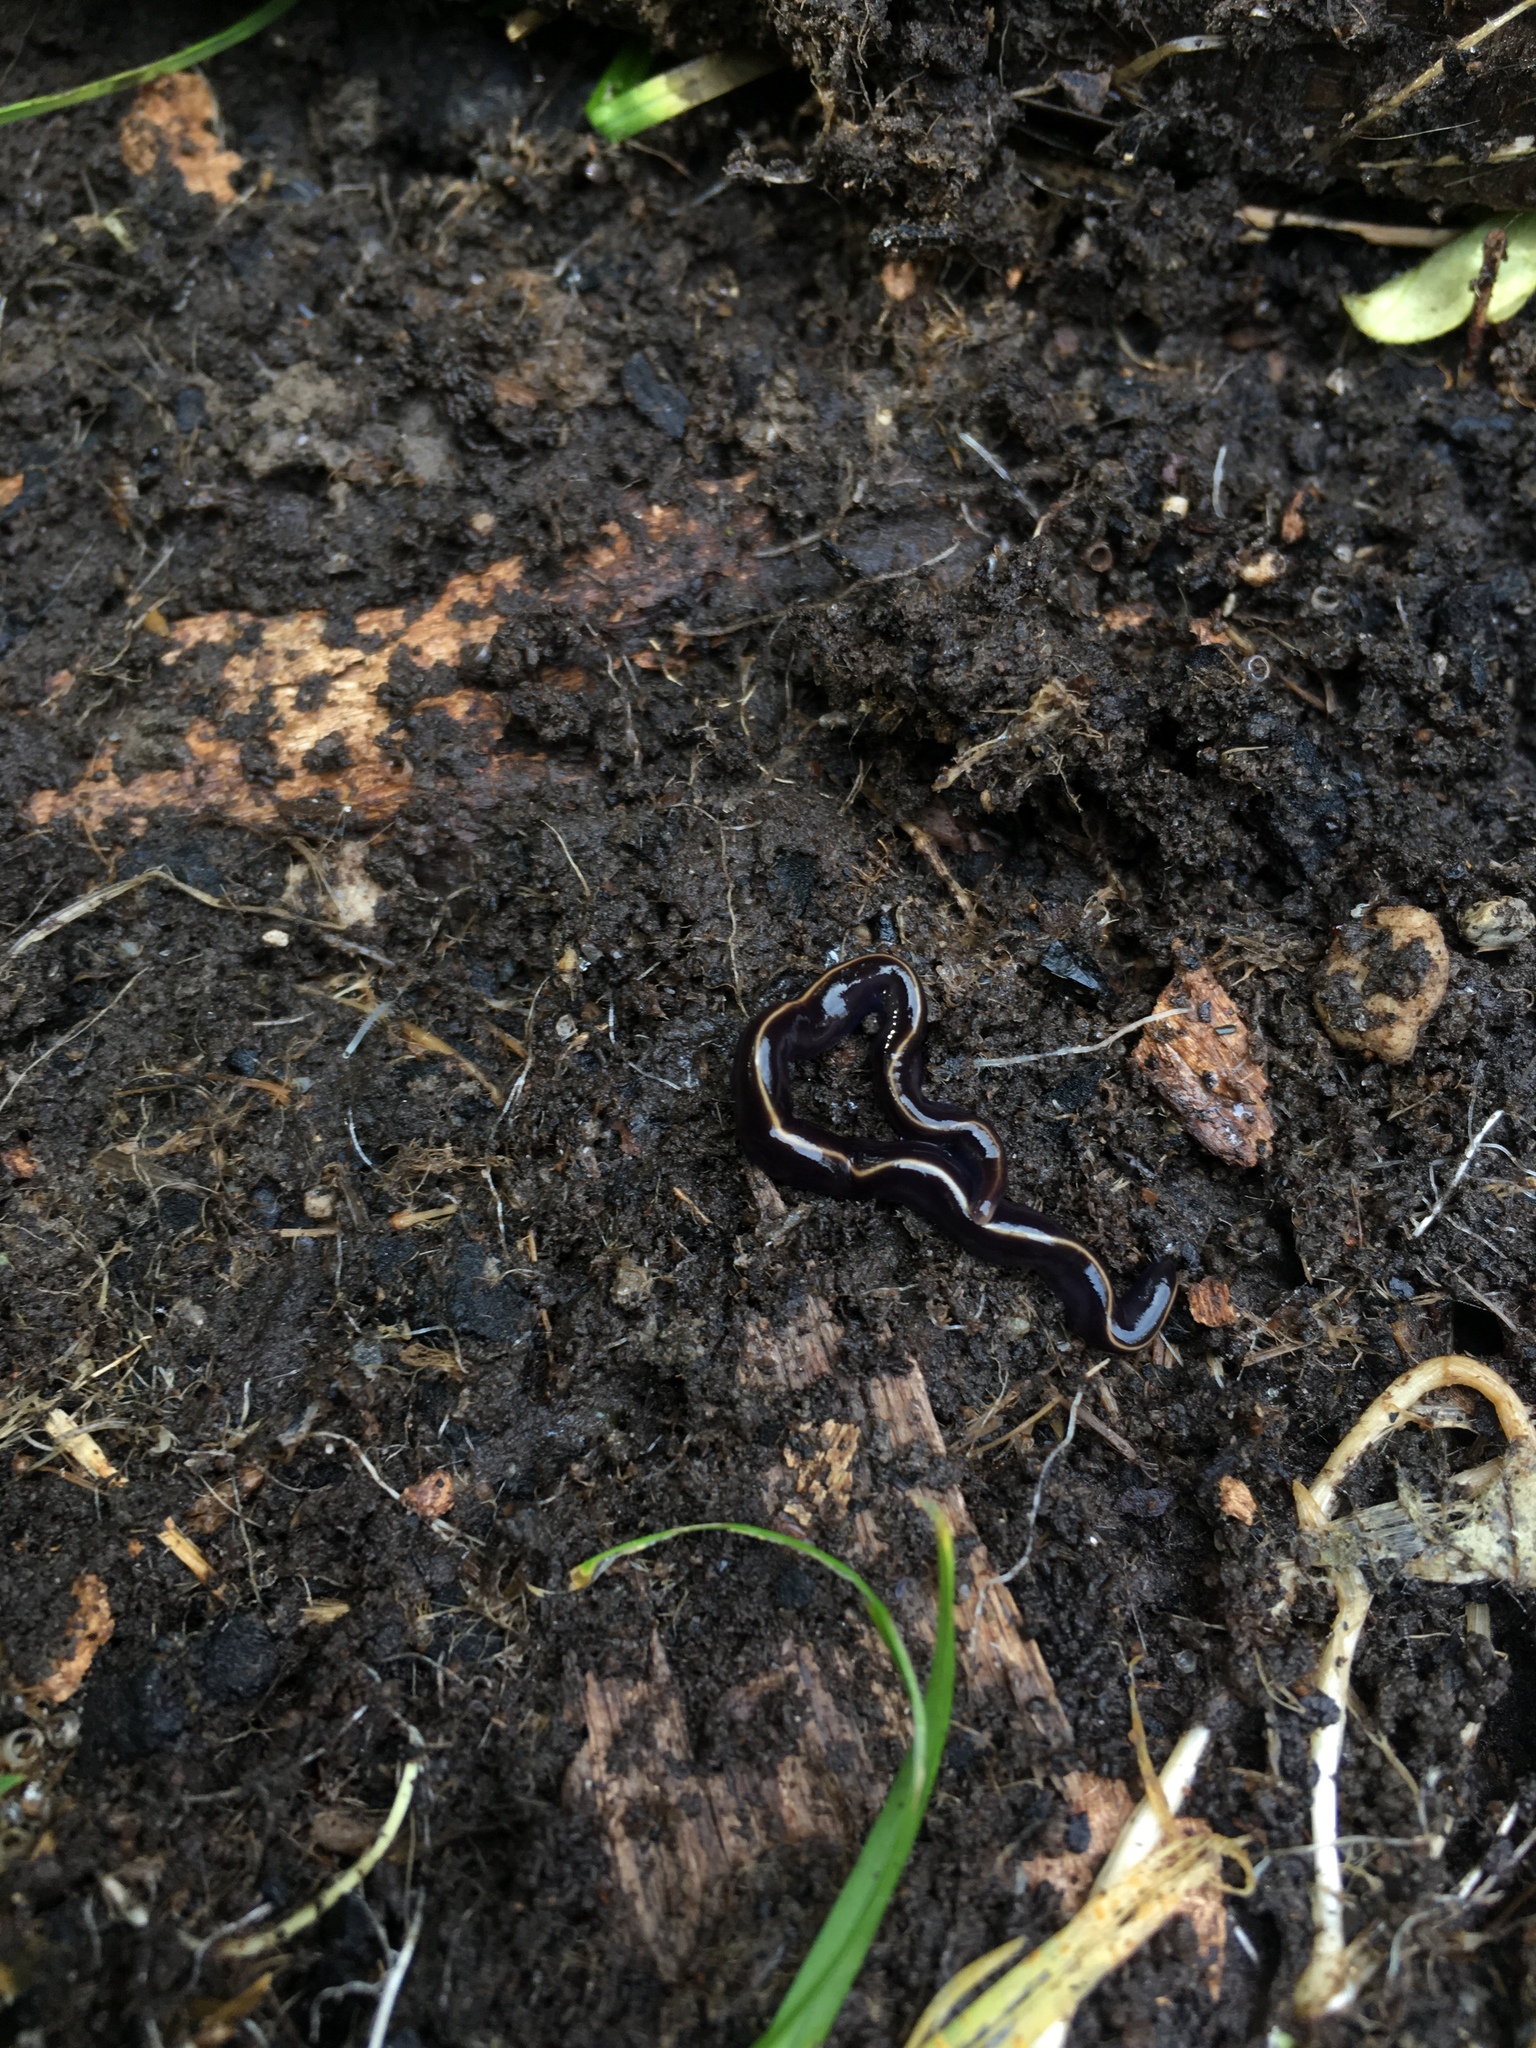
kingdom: Animalia
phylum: Platyhelminthes
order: Tricladida
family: Geoplanidae
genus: Caenoplana
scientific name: Caenoplana coerulea
